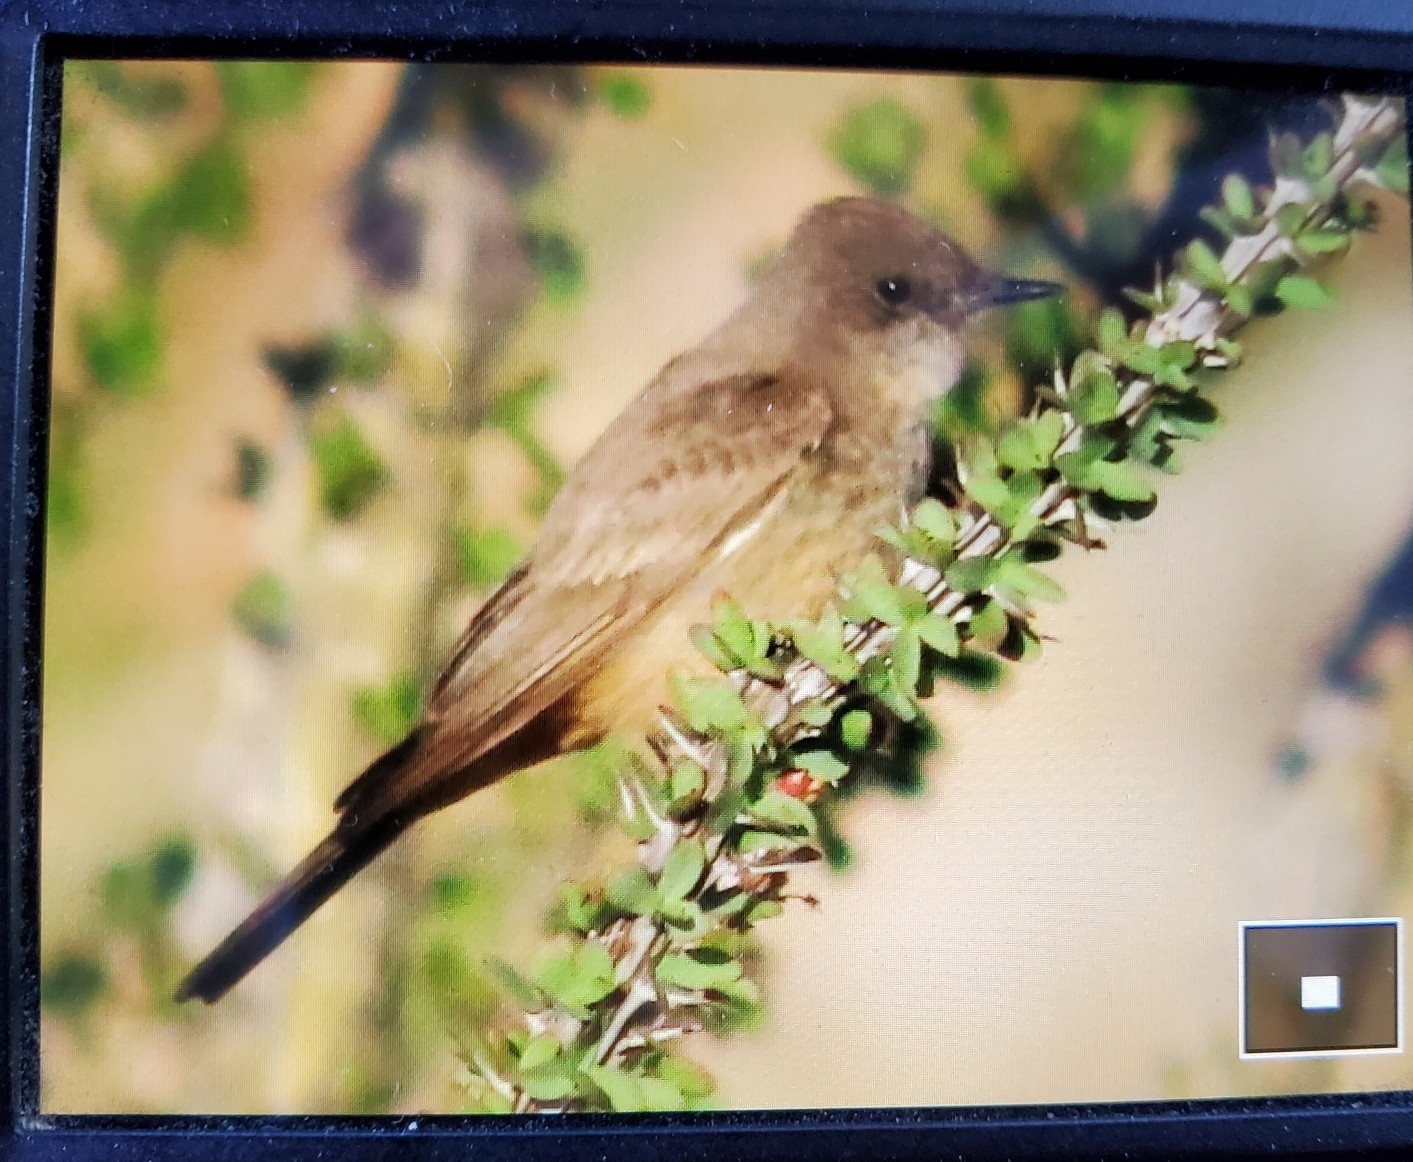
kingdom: Animalia
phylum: Chordata
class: Aves
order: Passeriformes
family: Tyrannidae
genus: Sayornis
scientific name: Sayornis saya
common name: Say's phoebe
